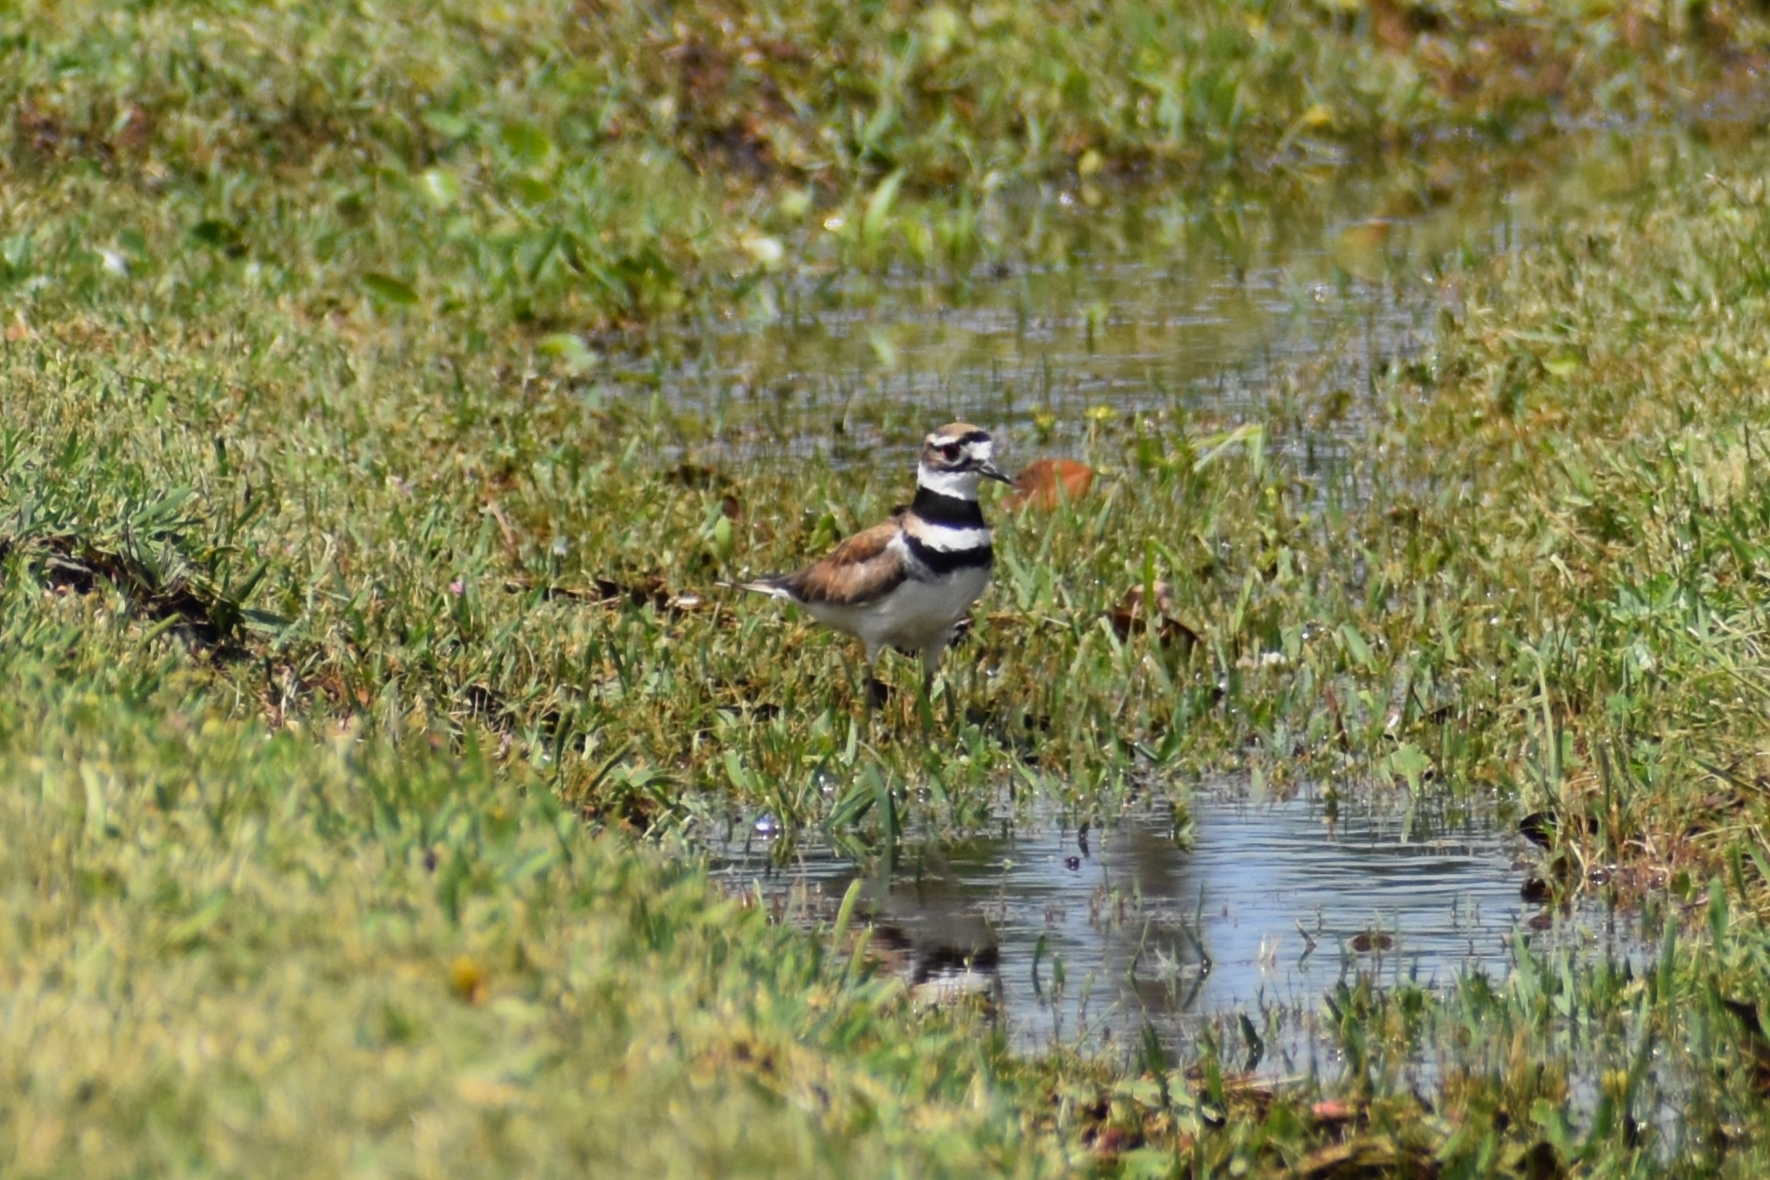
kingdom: Animalia
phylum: Chordata
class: Aves
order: Charadriiformes
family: Charadriidae
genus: Charadrius
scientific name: Charadrius vociferus
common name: Killdeer
